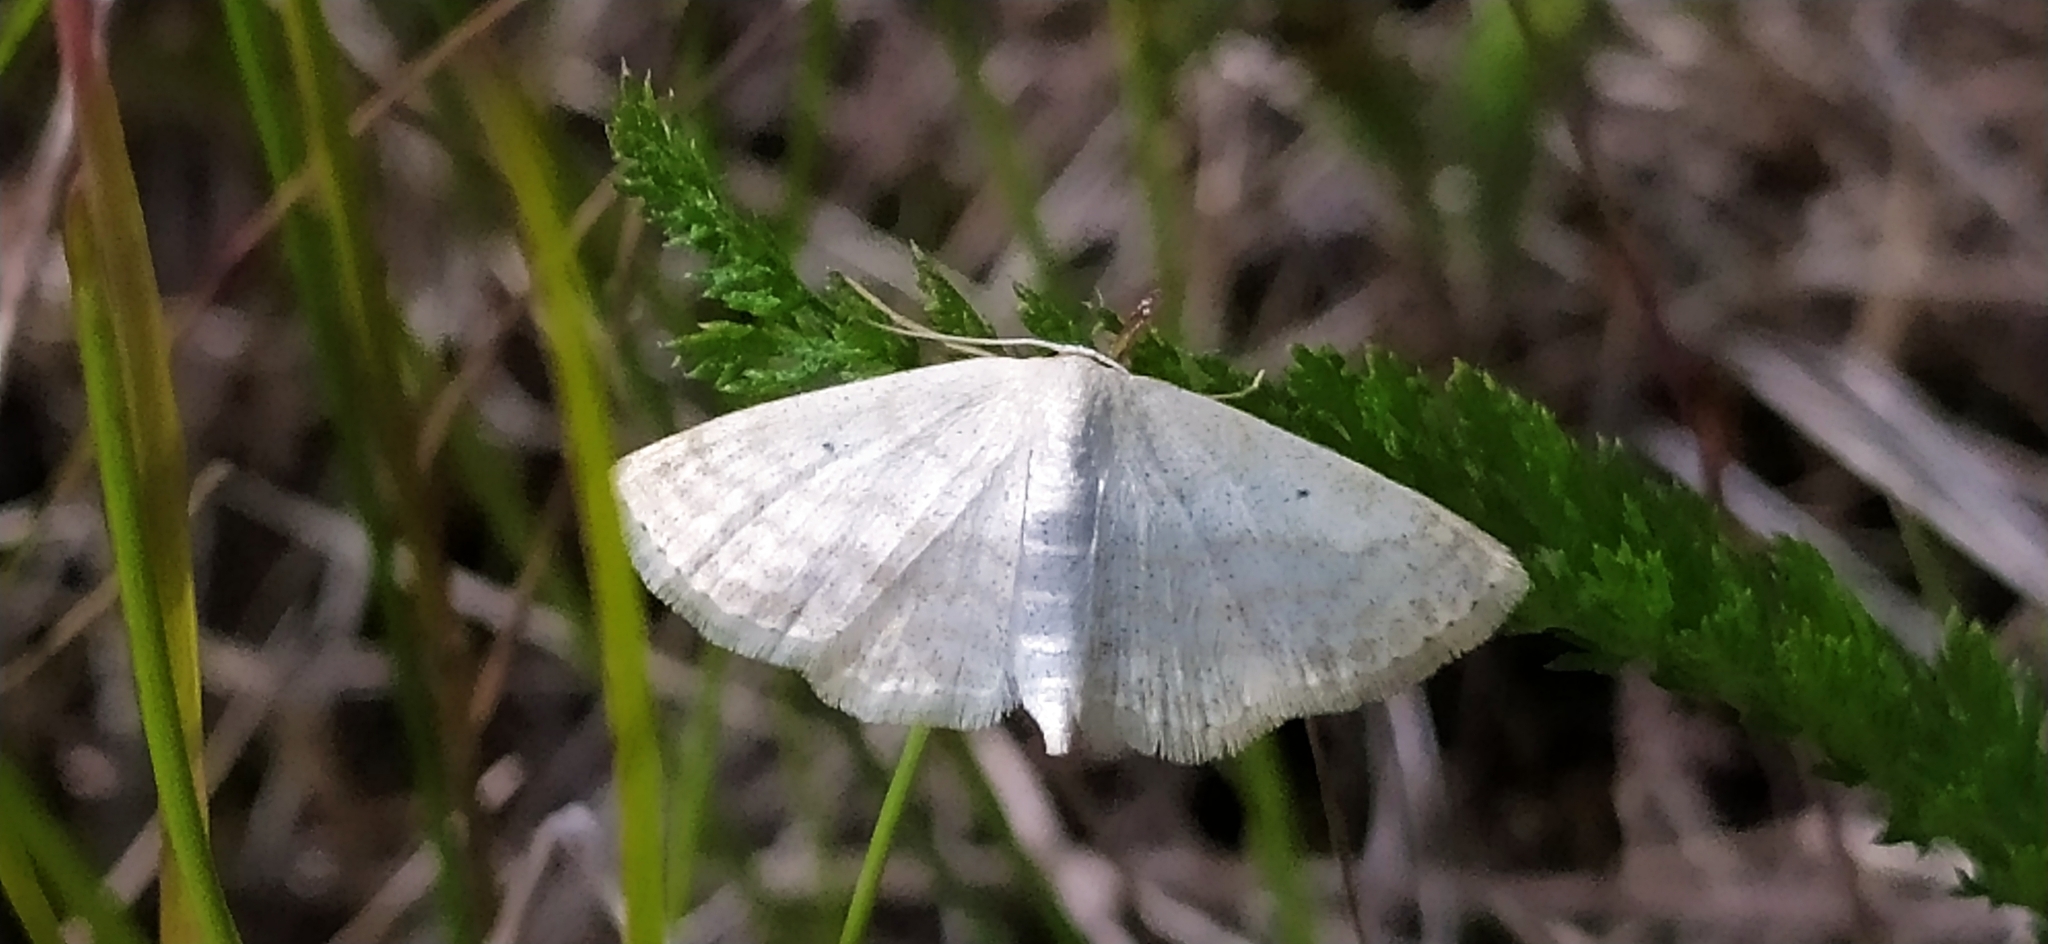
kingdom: Animalia
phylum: Arthropoda
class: Insecta
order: Lepidoptera
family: Geometridae
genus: Scopula
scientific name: Scopula immutata
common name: Lesser cream wave
